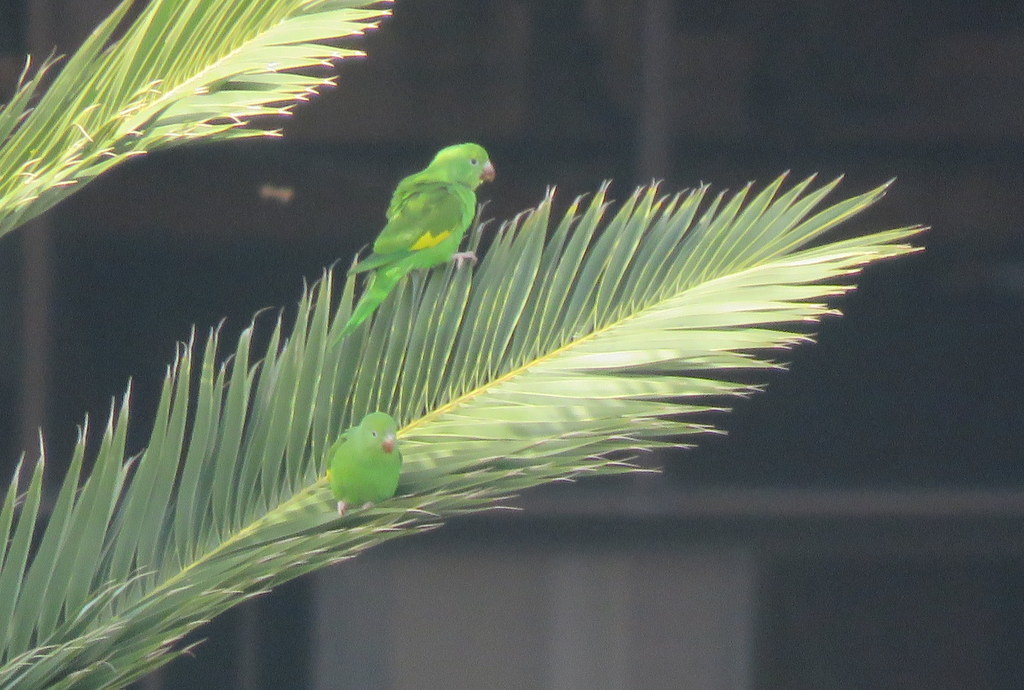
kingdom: Animalia
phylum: Chordata
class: Aves
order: Psittaciformes
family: Psittacidae
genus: Brotogeris
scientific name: Brotogeris chiriri
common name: Yellow-chevroned parakeet
